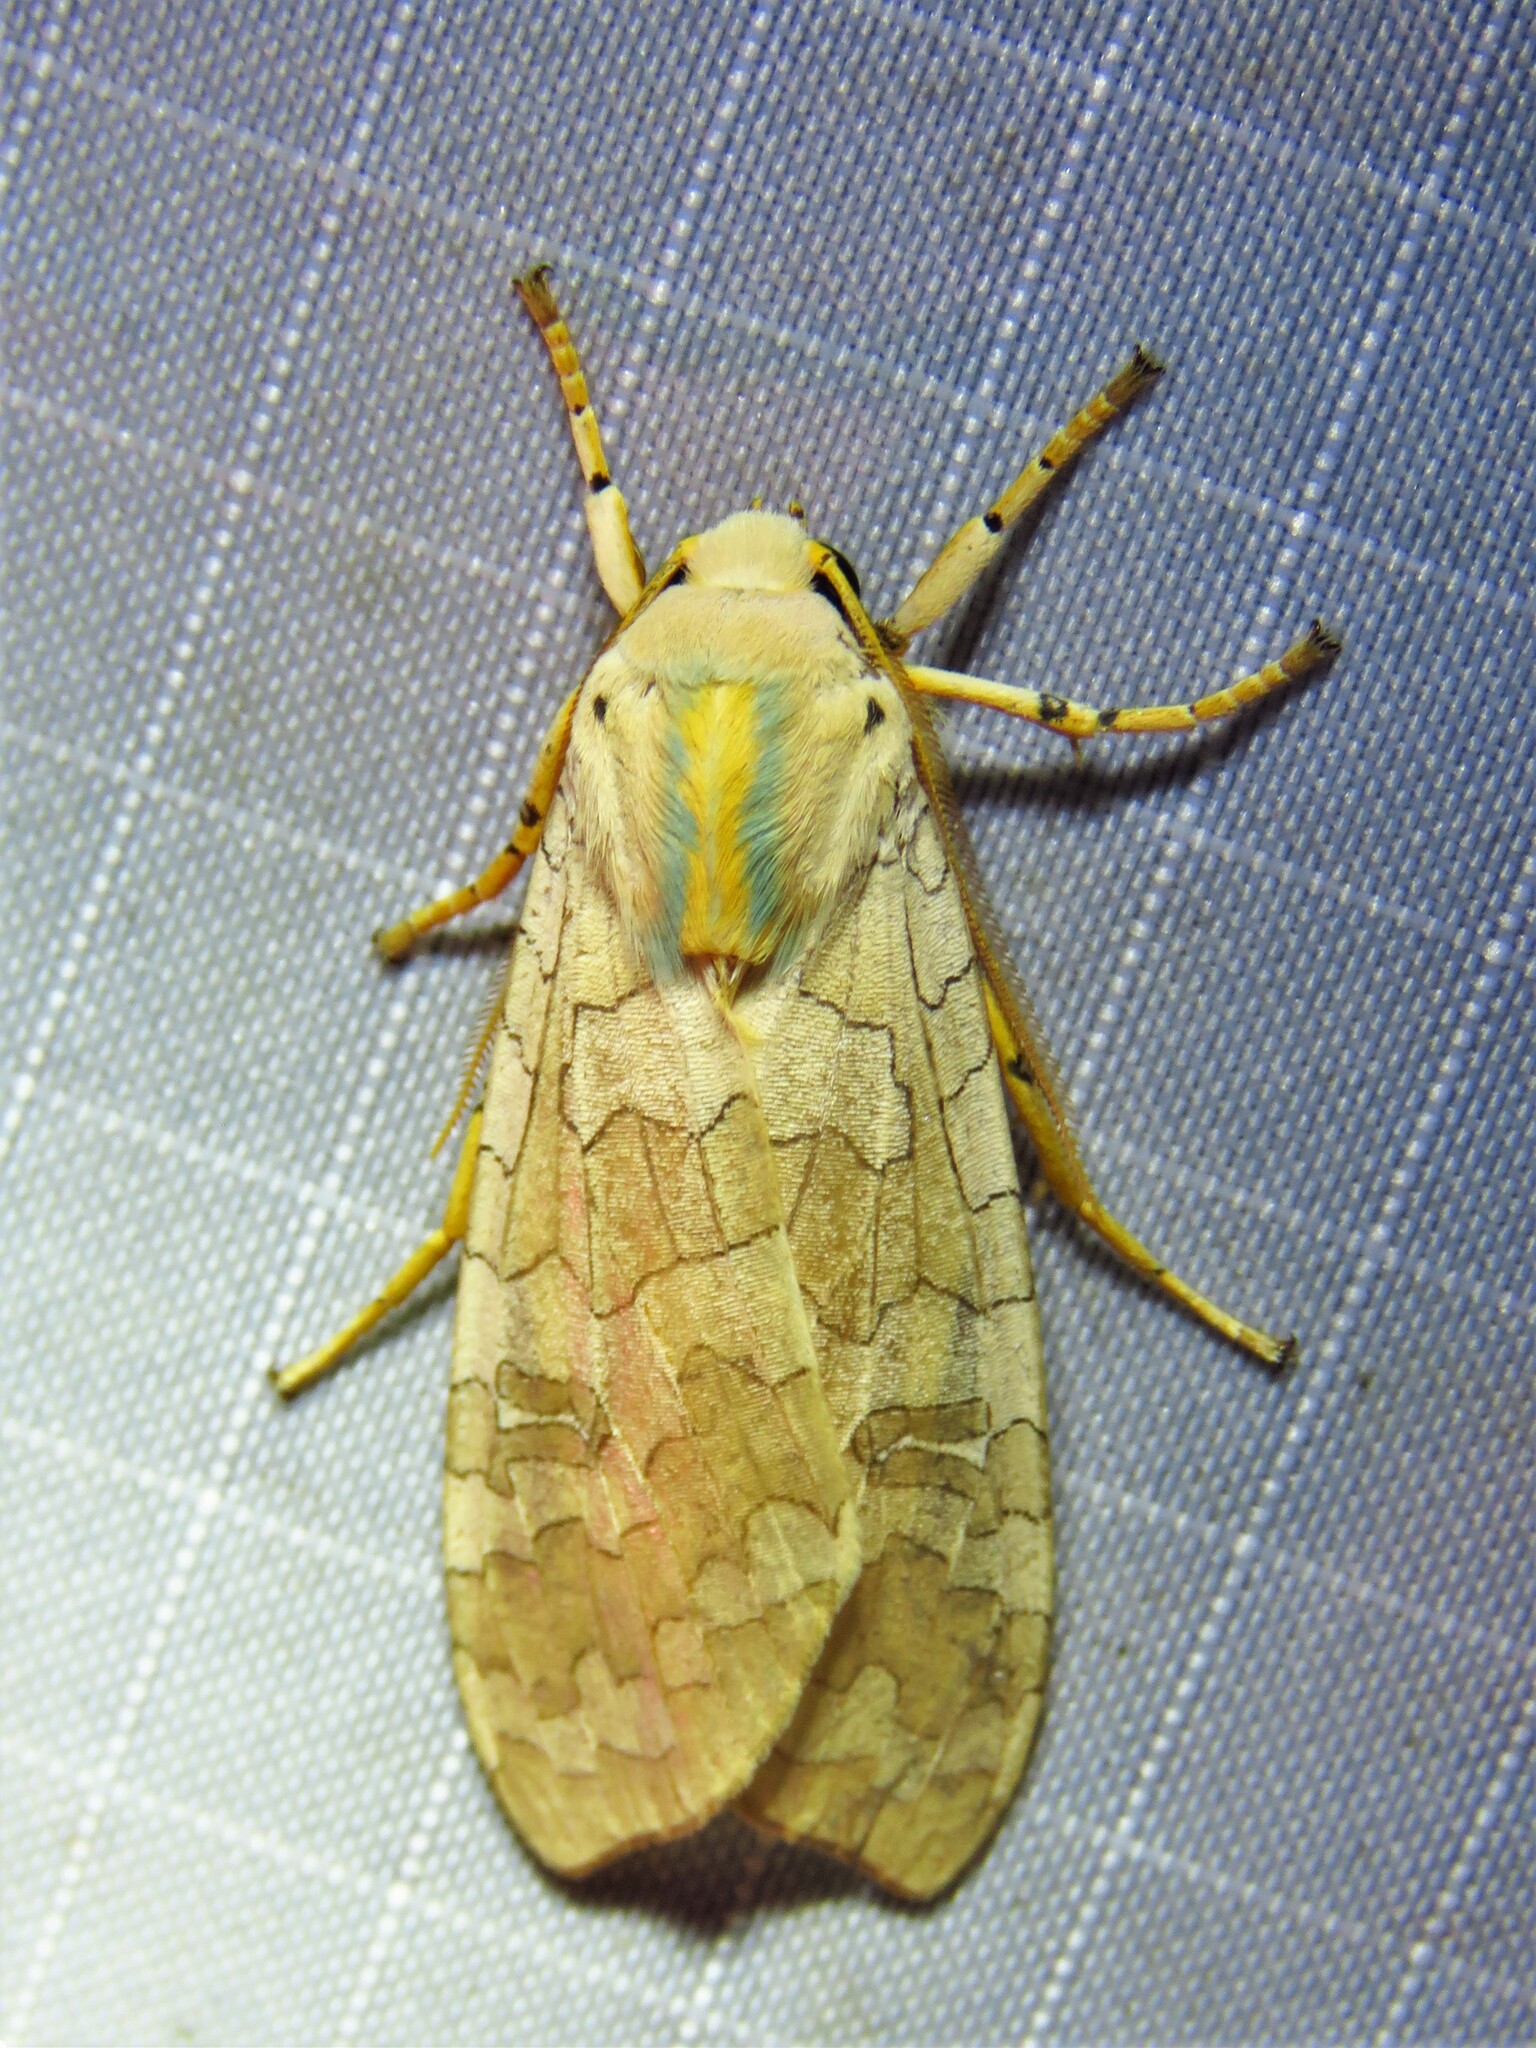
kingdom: Animalia
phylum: Arthropoda
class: Insecta
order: Lepidoptera
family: Erebidae
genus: Halysidota
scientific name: Halysidota
